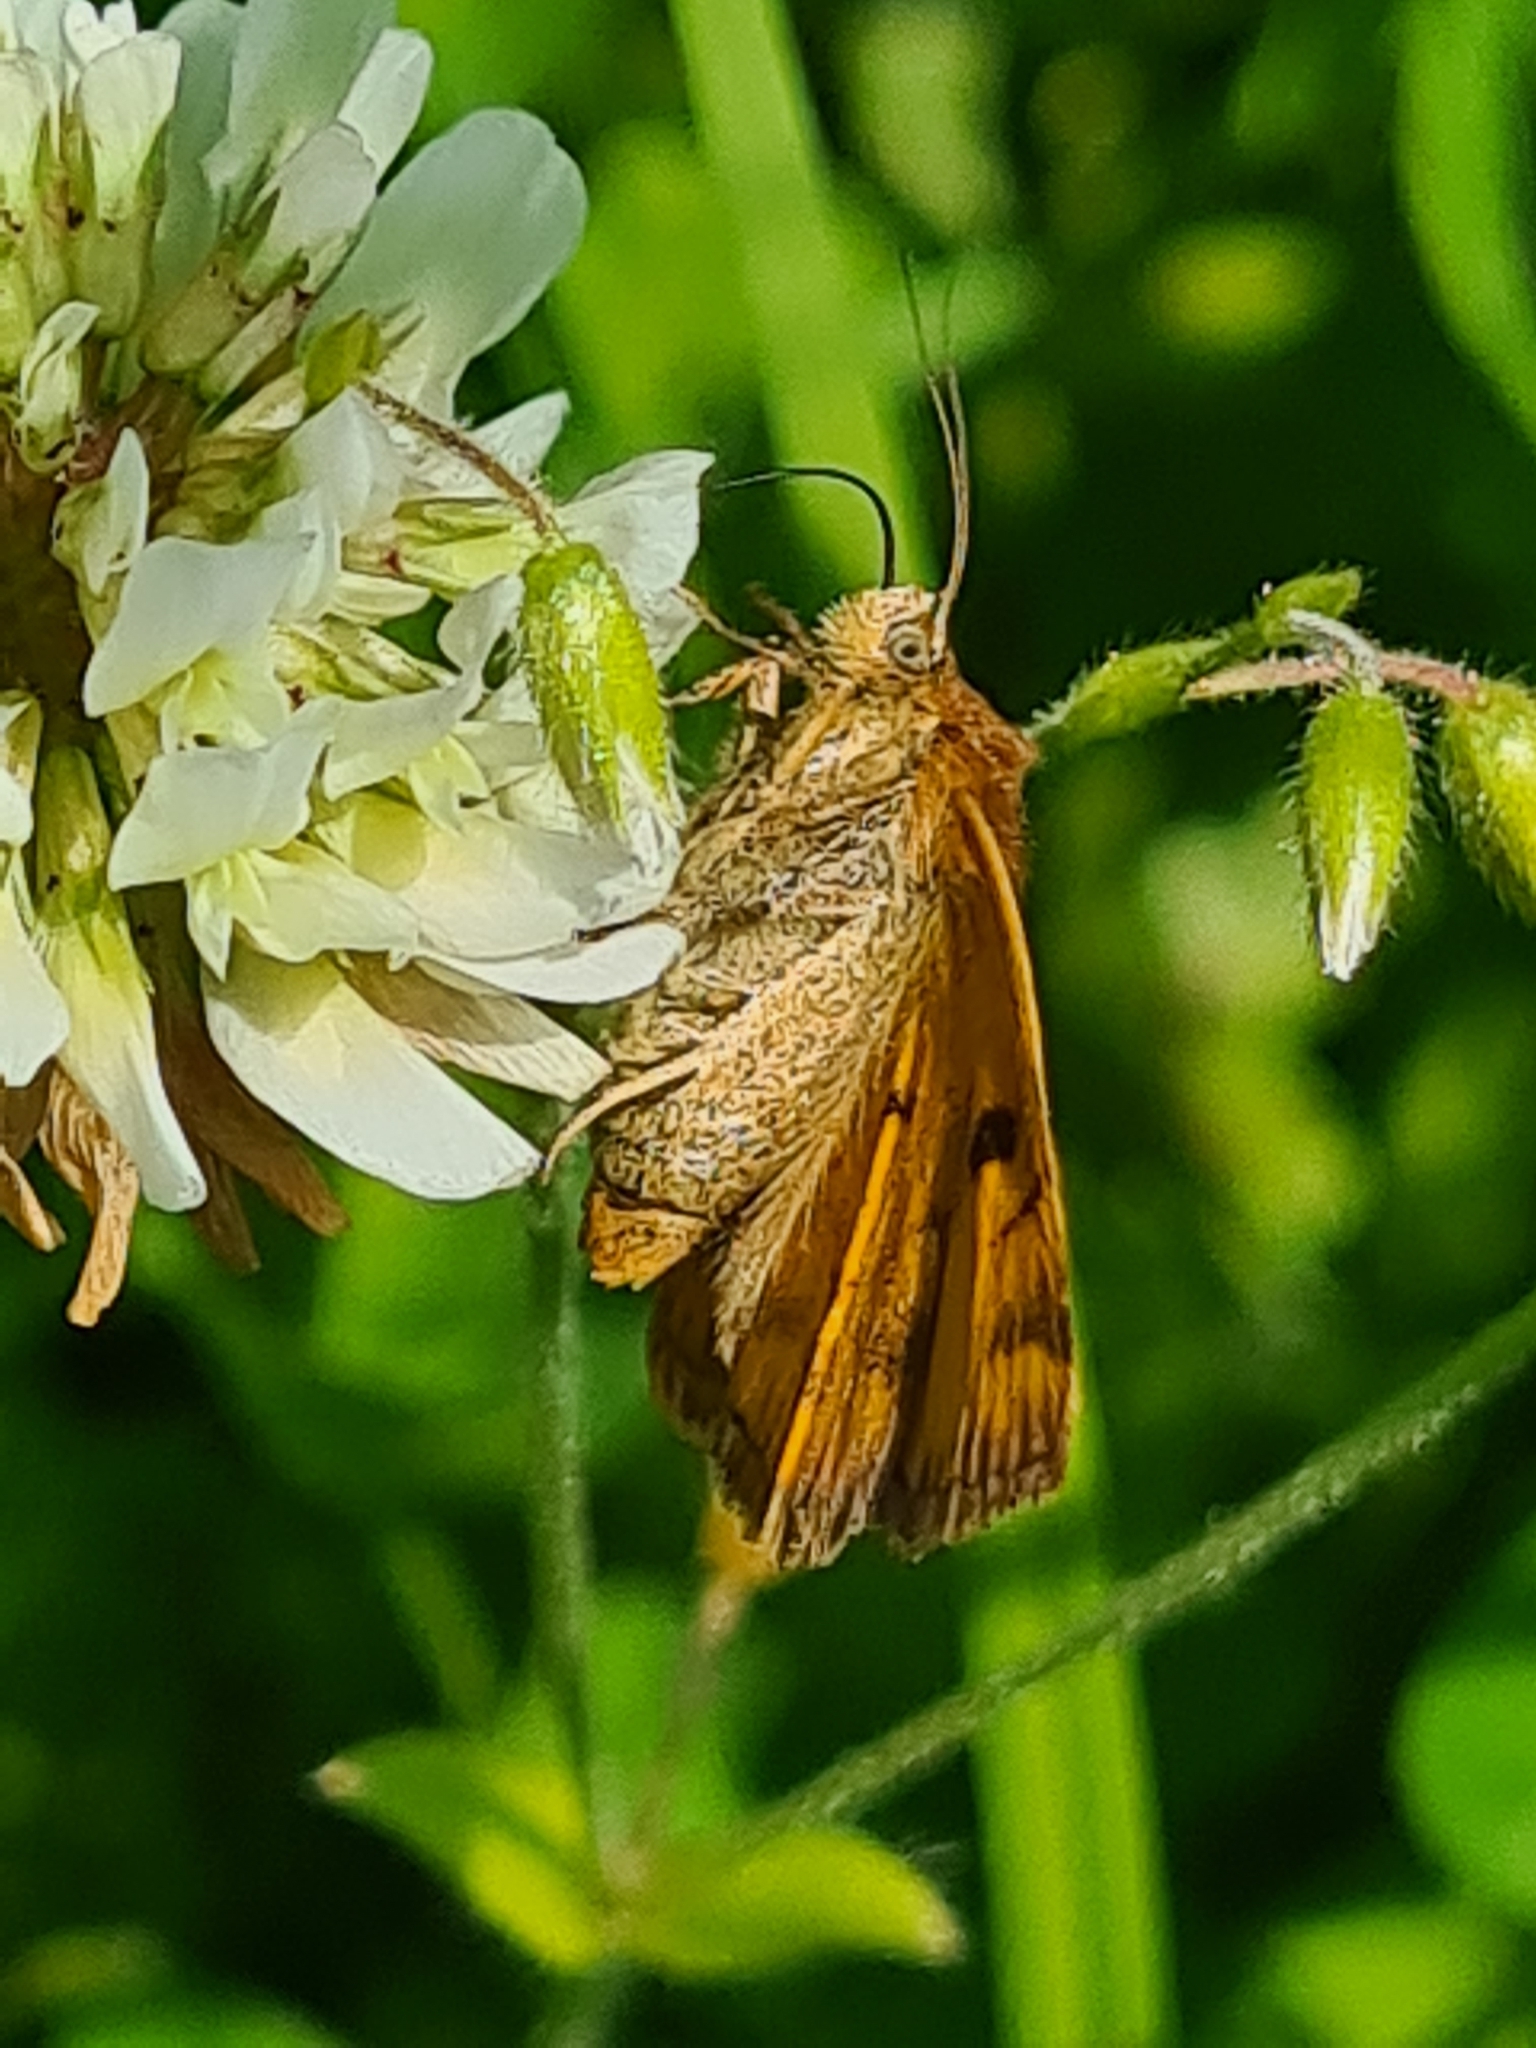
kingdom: Animalia
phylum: Arthropoda
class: Insecta
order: Lepidoptera
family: Erebidae
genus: Euclidia
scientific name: Euclidia glyphica
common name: Burnet companion
